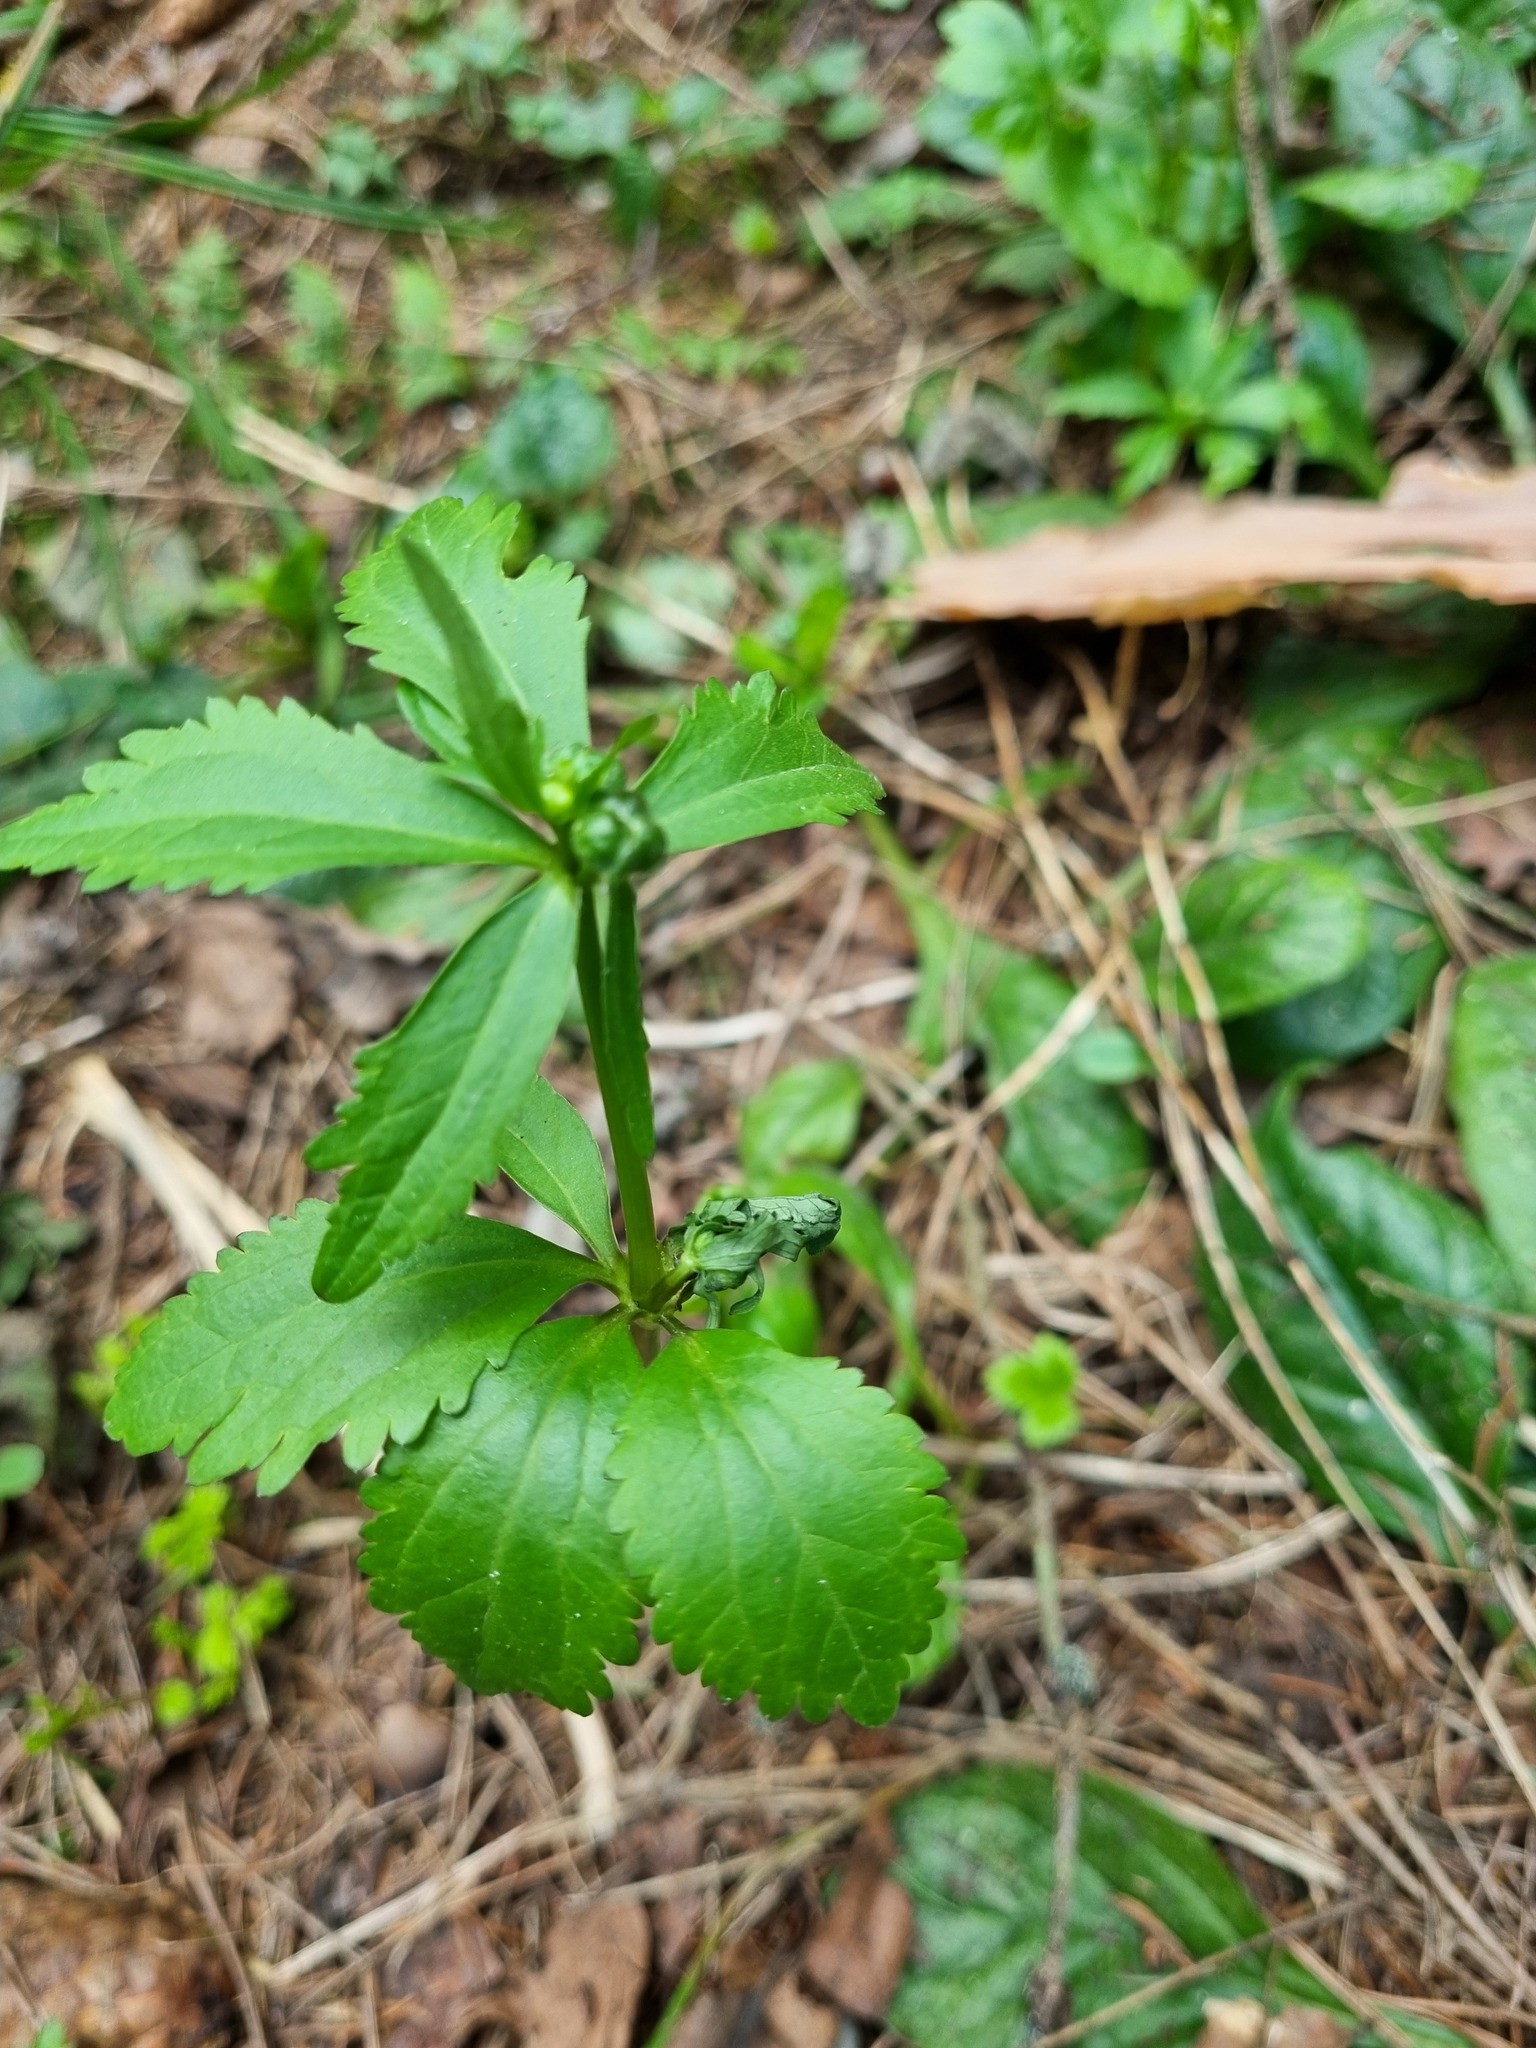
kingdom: Plantae
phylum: Tracheophyta
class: Magnoliopsida
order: Ranunculales
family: Ranunculaceae
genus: Ranunculus
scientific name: Ranunculus cassubicus
